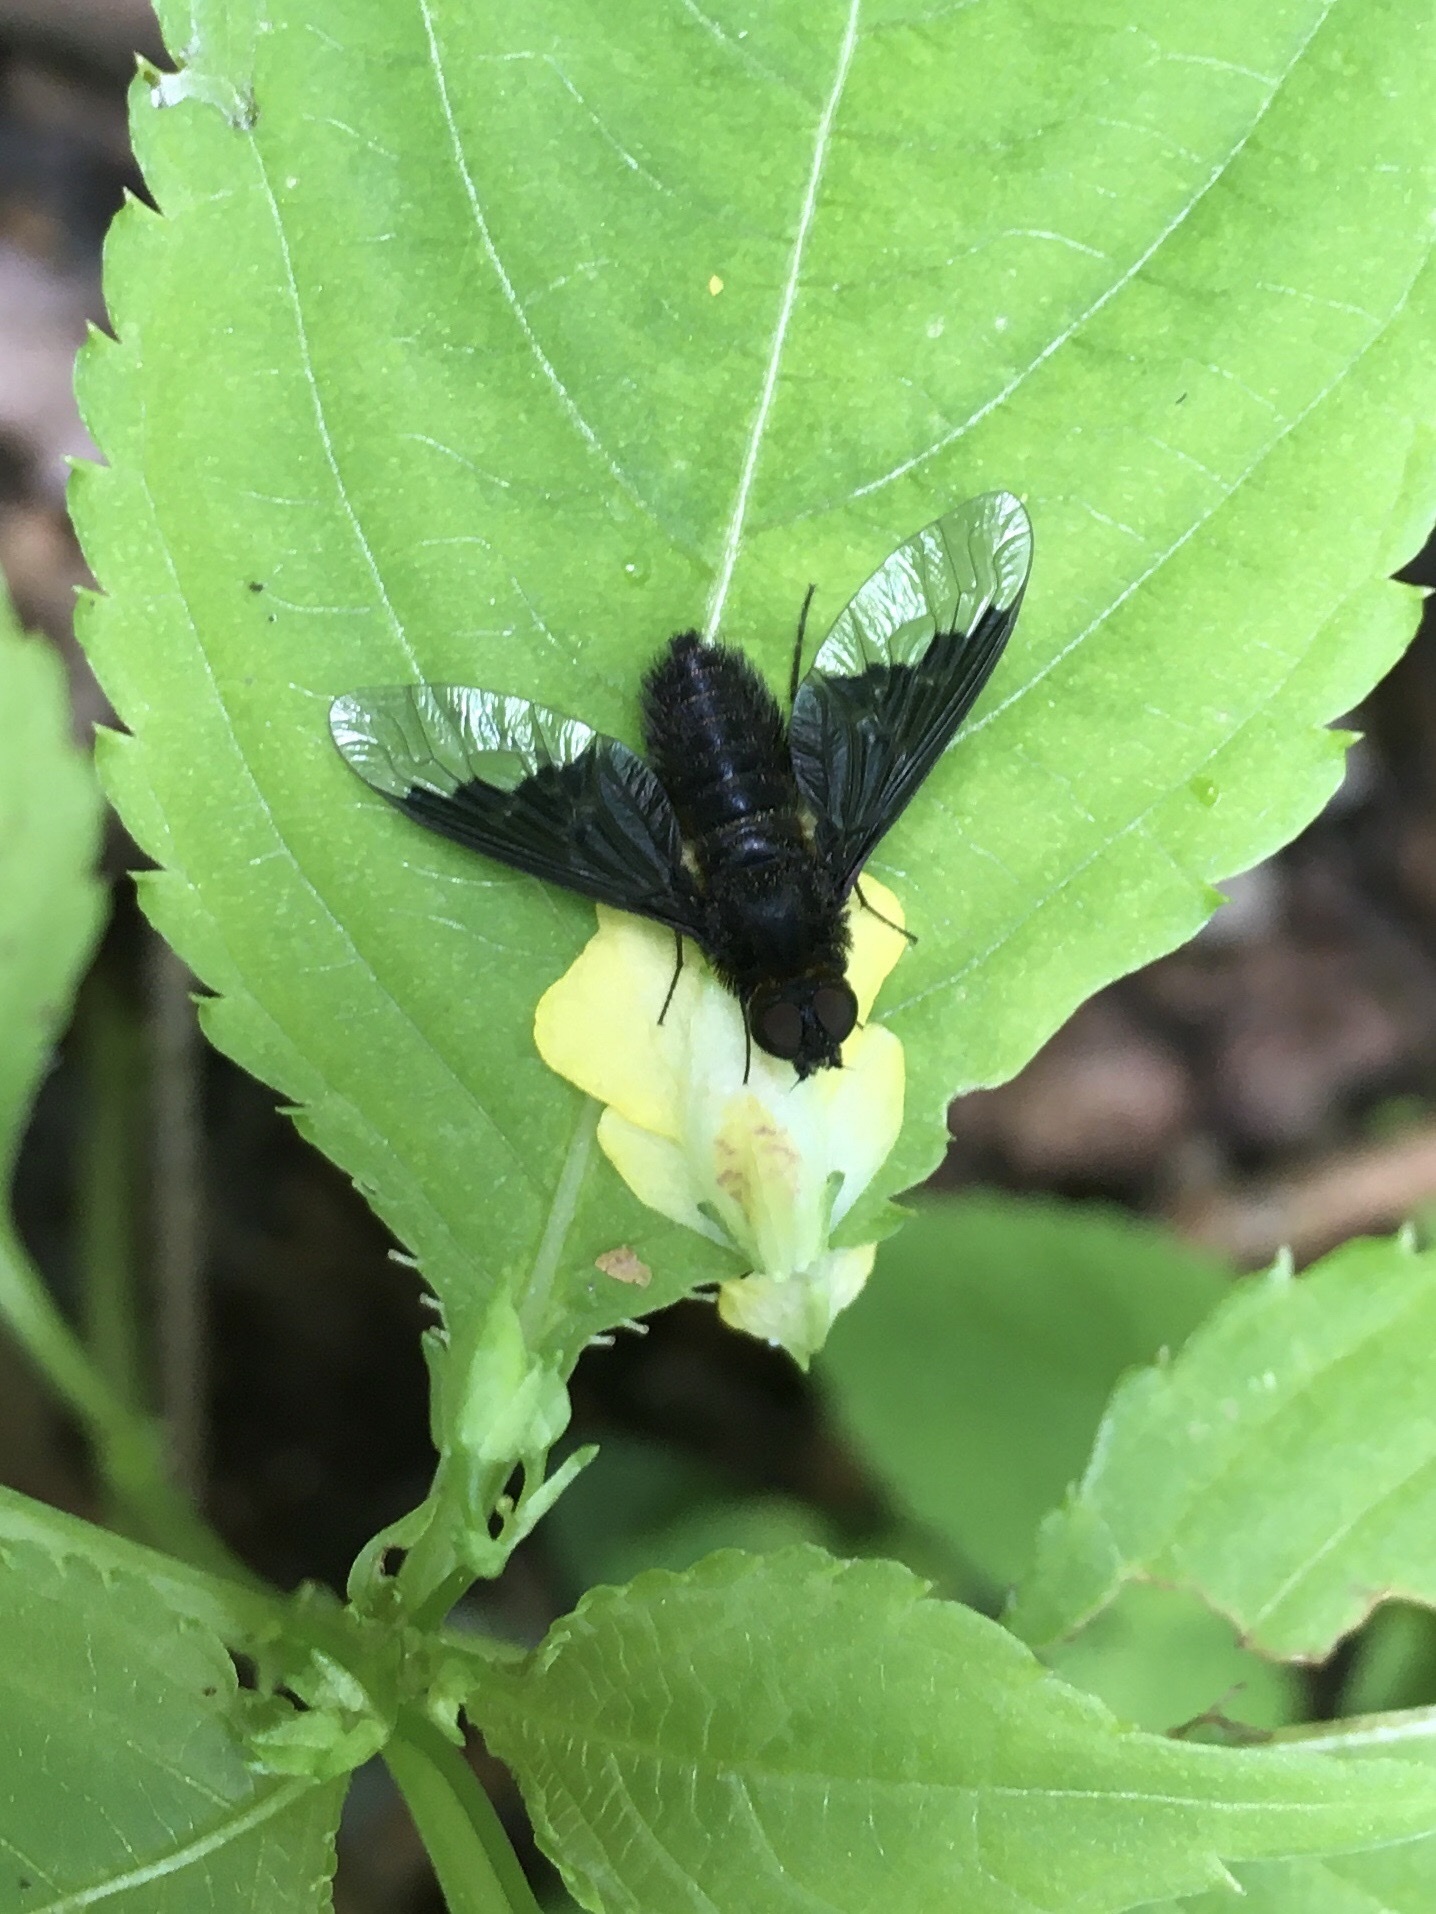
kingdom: Animalia
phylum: Arthropoda
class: Insecta
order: Diptera
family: Bombyliidae
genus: Hemipenthes
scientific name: Hemipenthes morio
